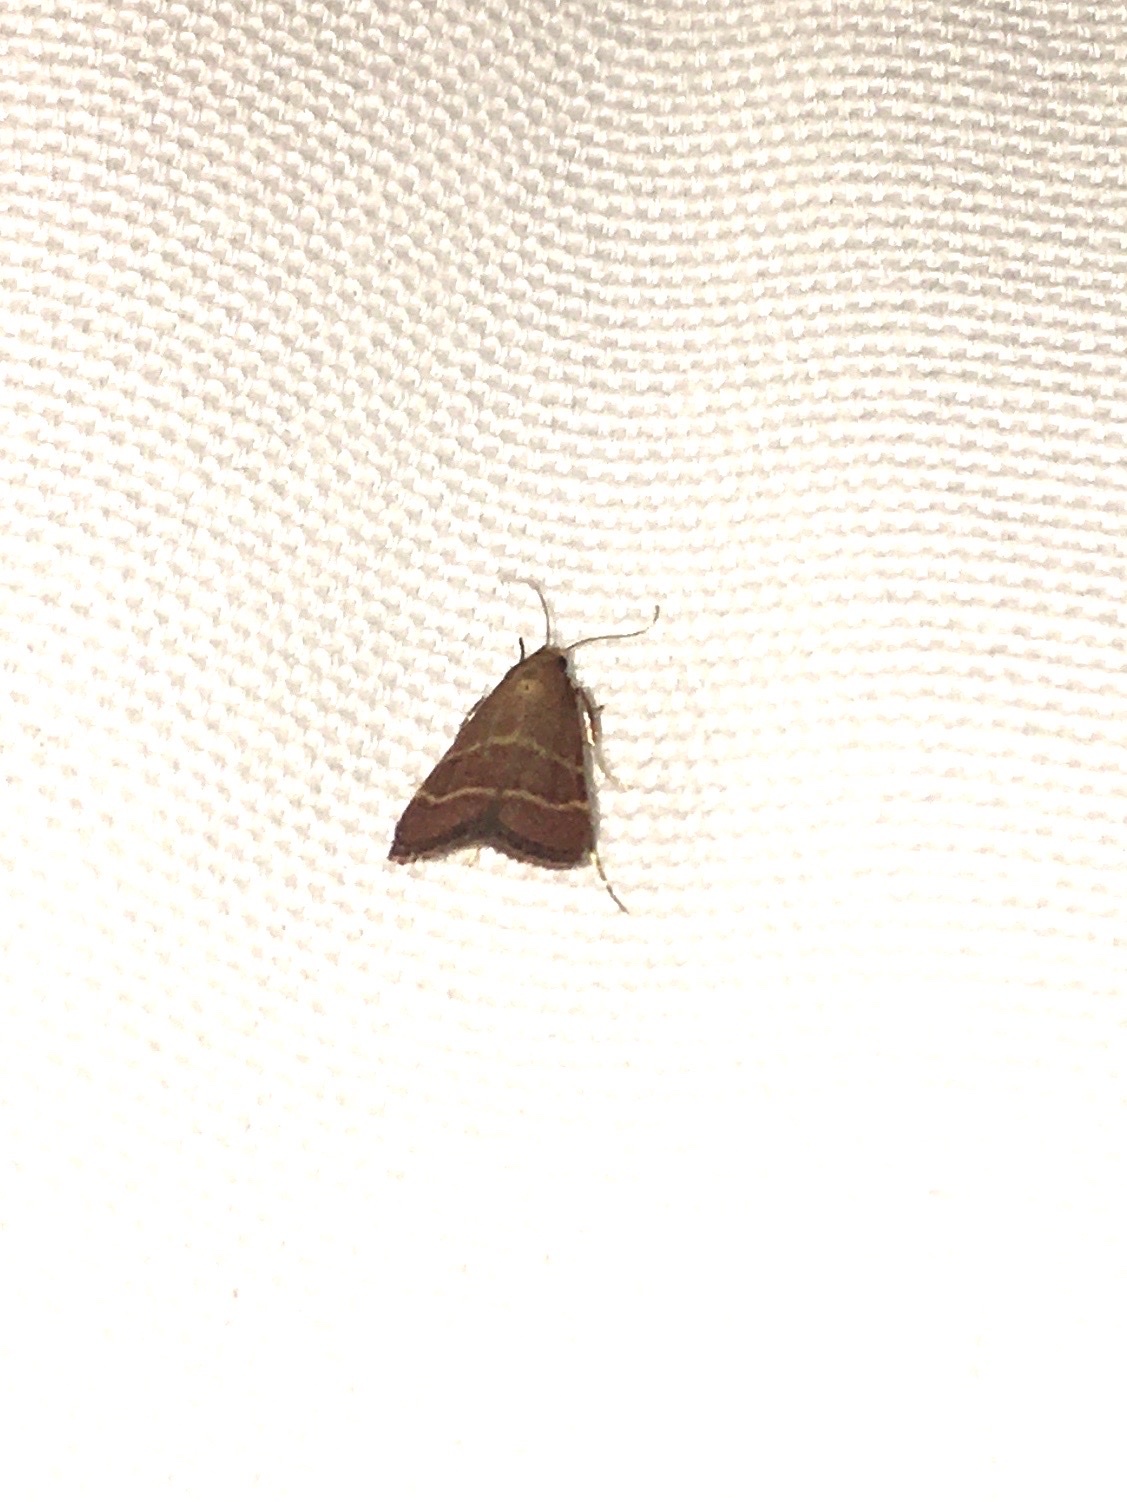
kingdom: Animalia
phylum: Arthropoda
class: Insecta
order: Lepidoptera
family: Pyralidae
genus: Arta
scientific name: Arta statalis
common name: Posturing arta moth
